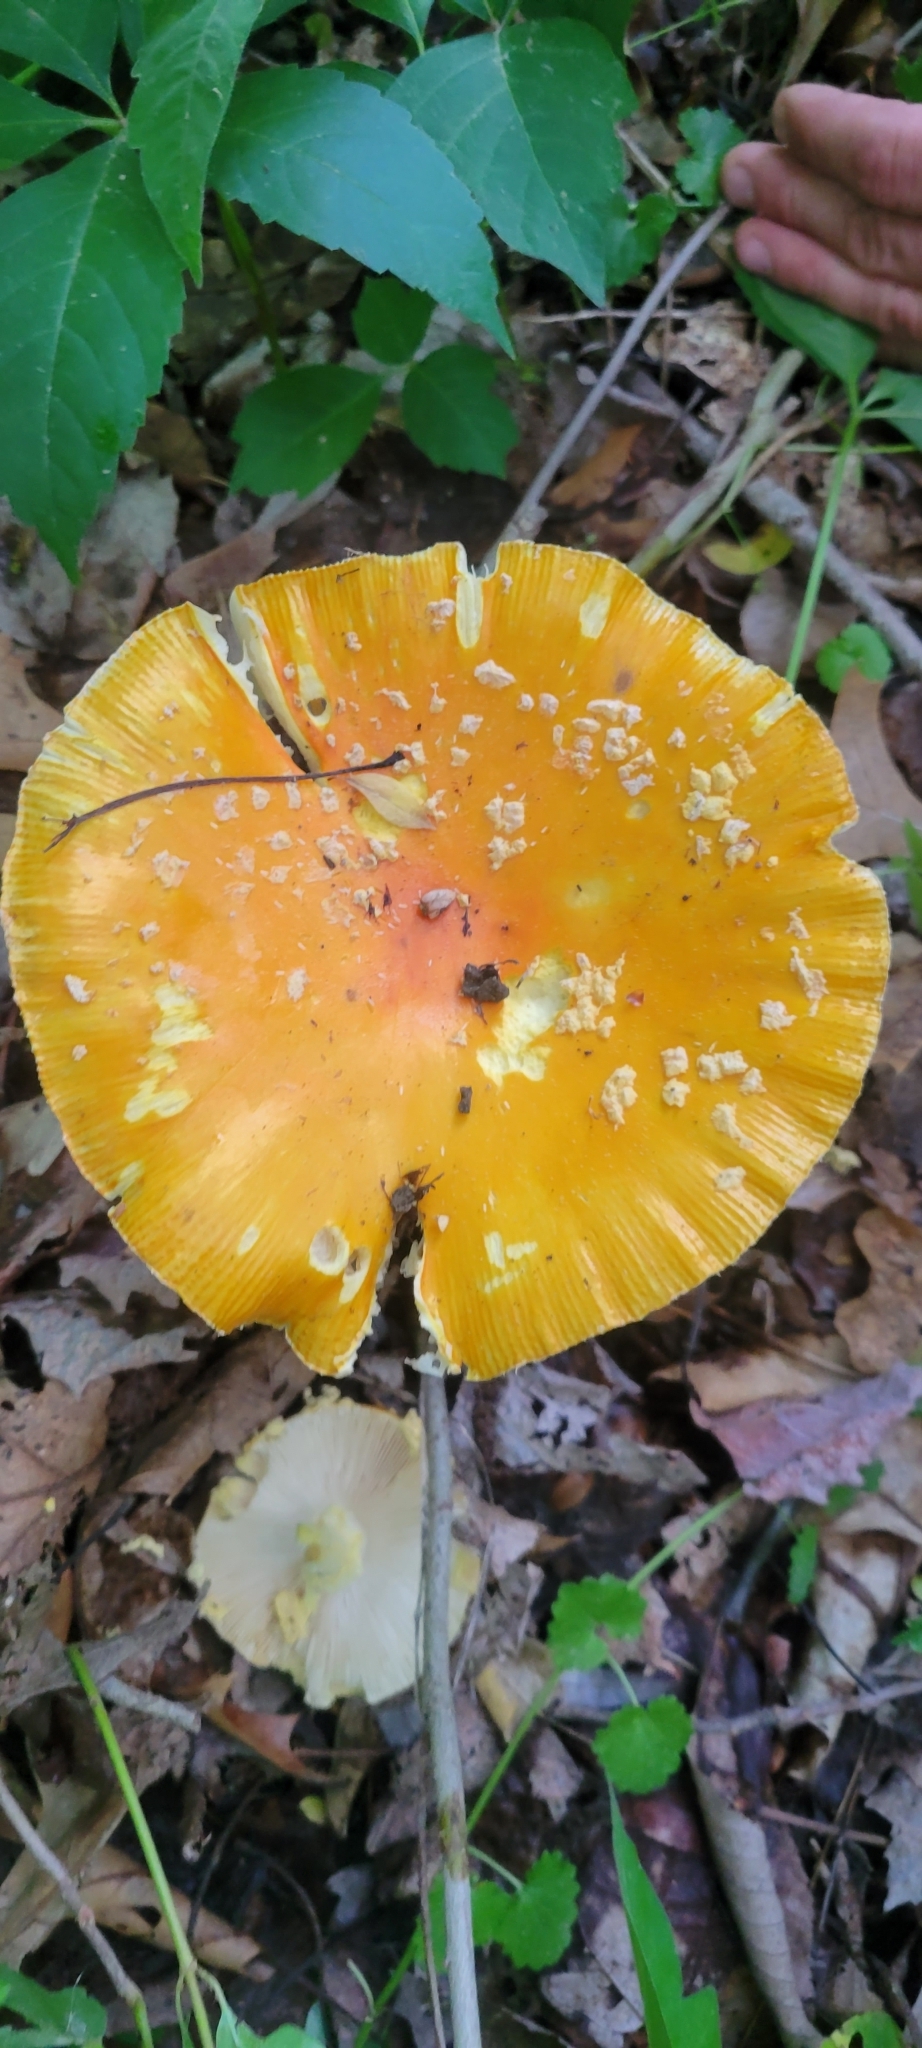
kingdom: Fungi
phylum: Basidiomycota
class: Agaricomycetes
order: Agaricales
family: Amanitaceae
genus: Amanita
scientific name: Amanita muscaria
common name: Fly agaric
